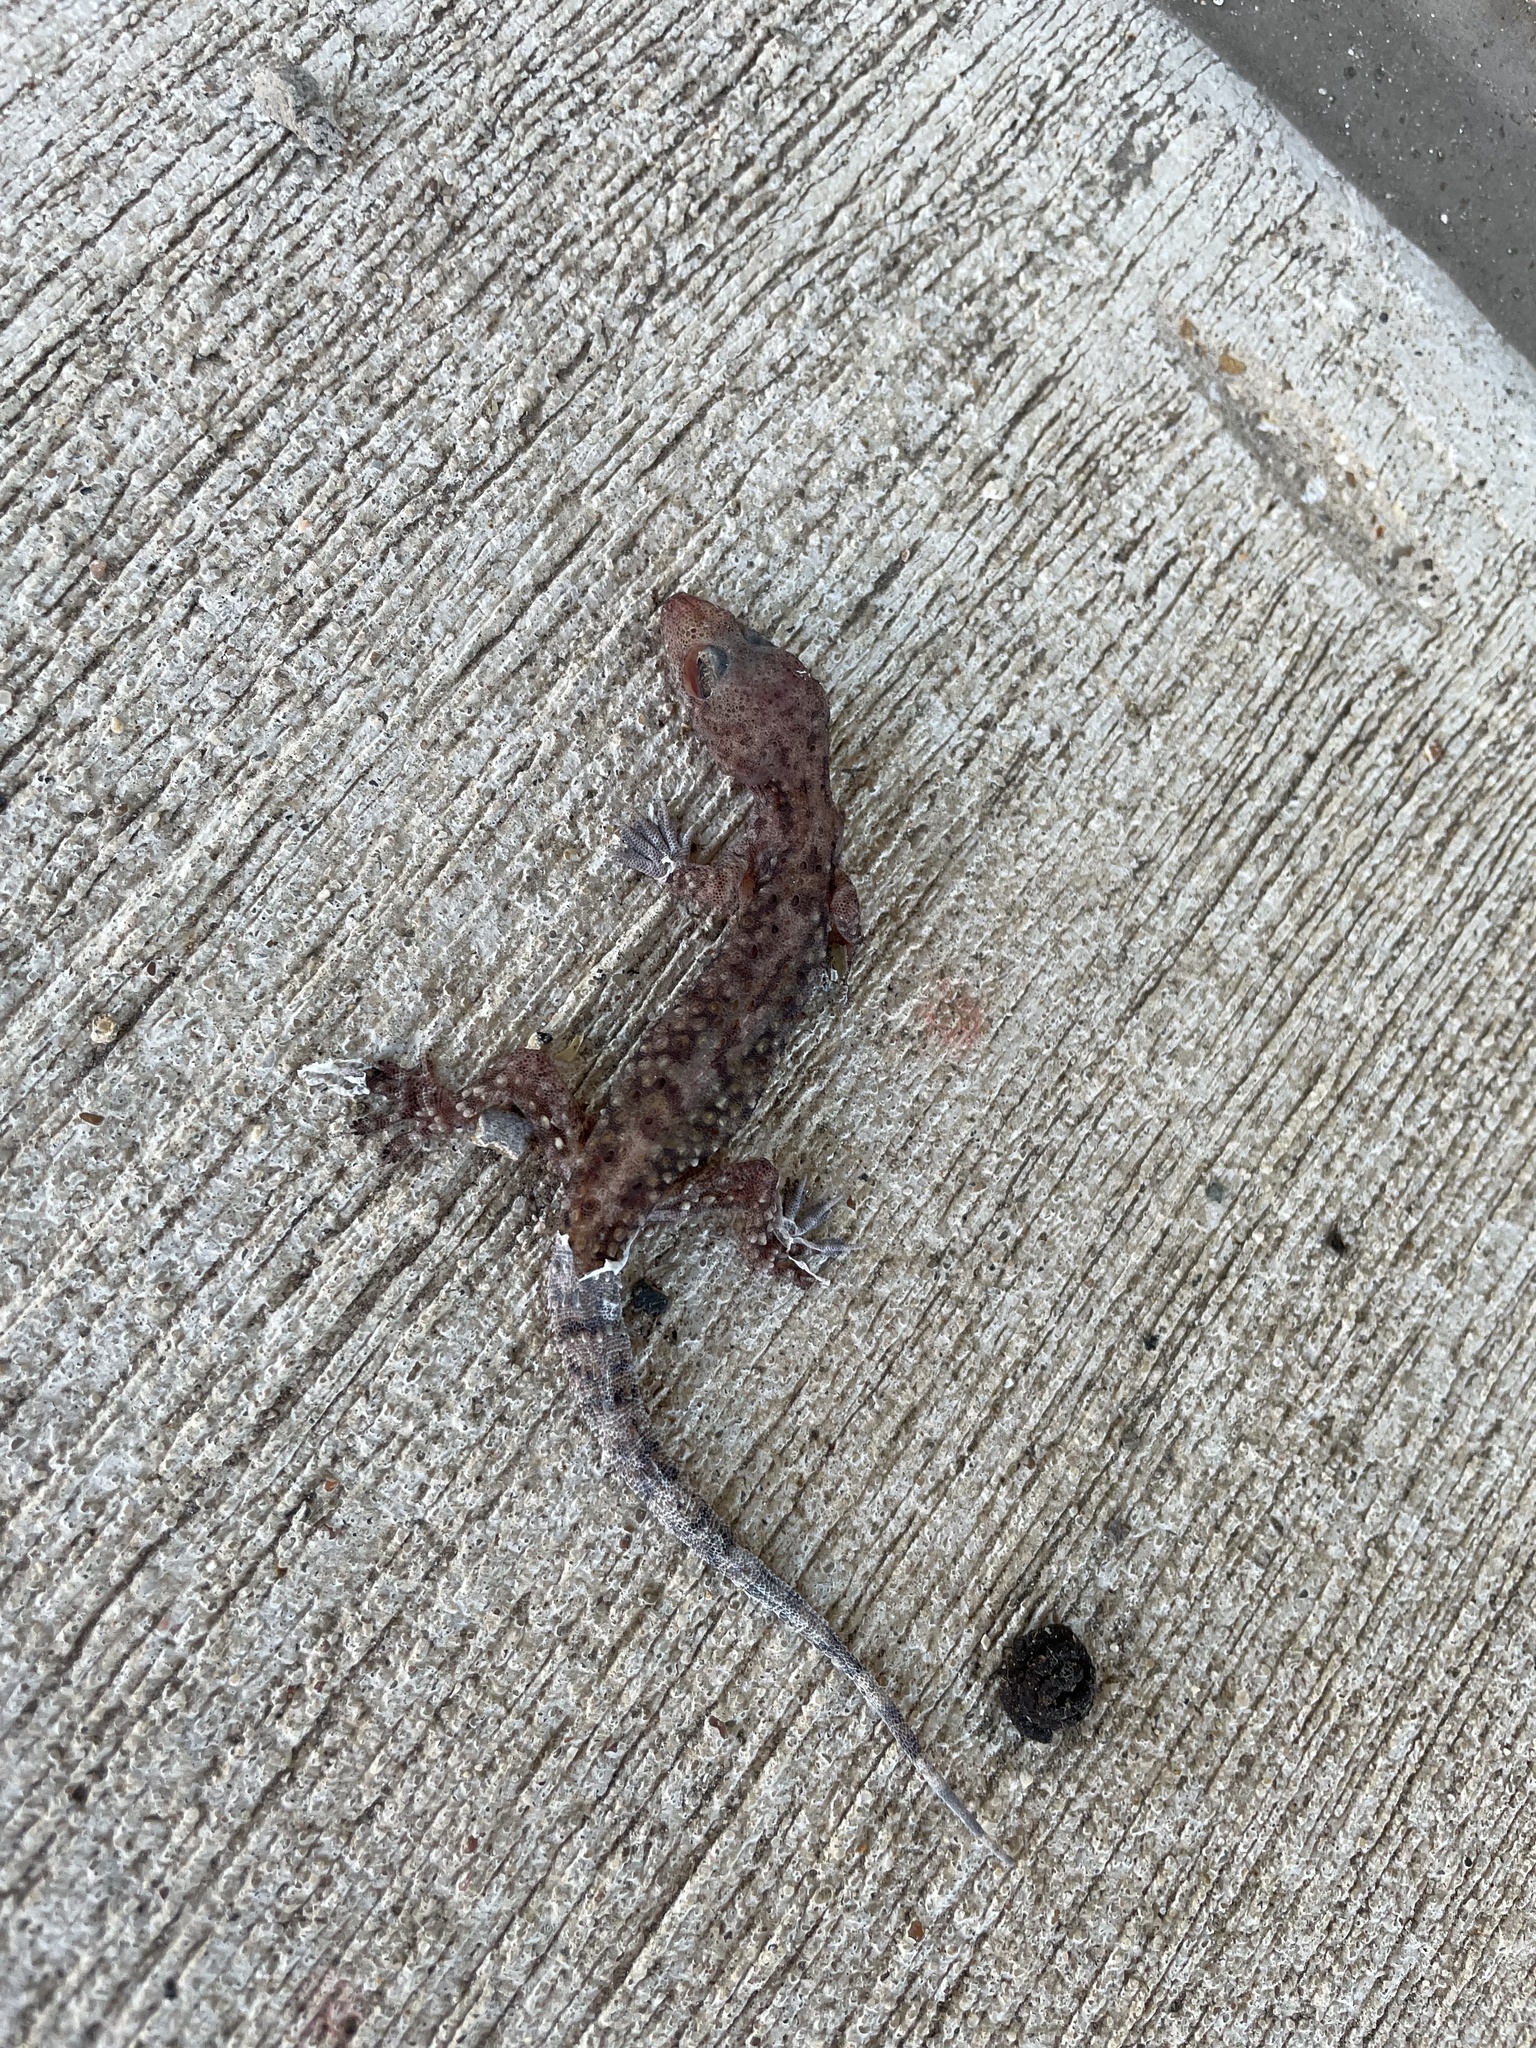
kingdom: Animalia
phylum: Chordata
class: Squamata
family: Gekkonidae
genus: Hemidactylus
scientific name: Hemidactylus turcicus
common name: Turkish gecko
